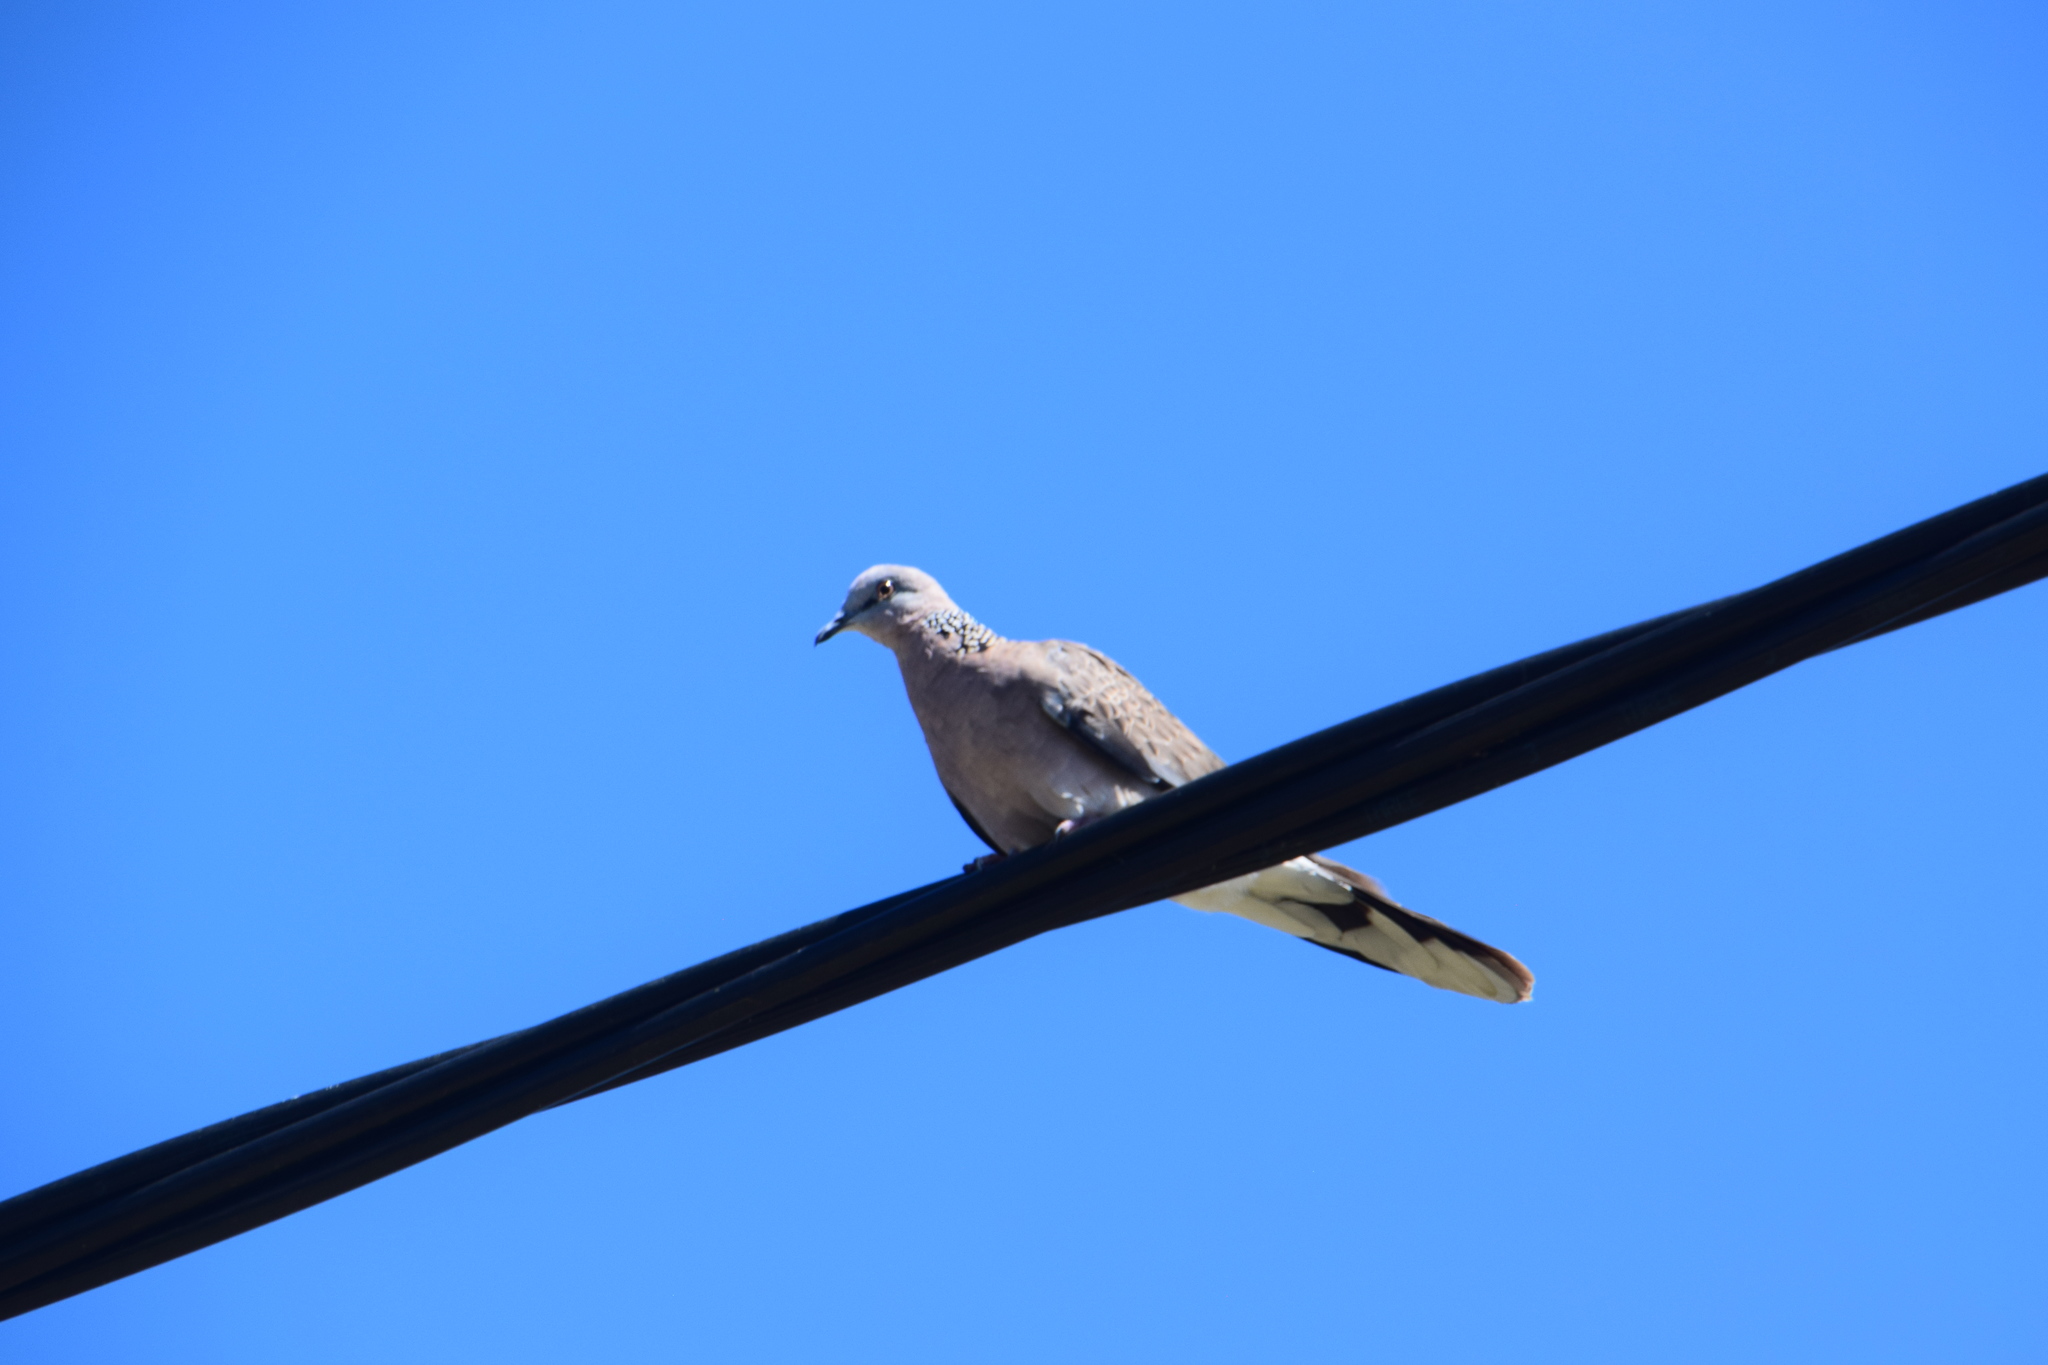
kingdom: Animalia
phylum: Chordata
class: Aves
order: Columbiformes
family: Columbidae
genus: Spilopelia
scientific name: Spilopelia chinensis
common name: Spotted dove
